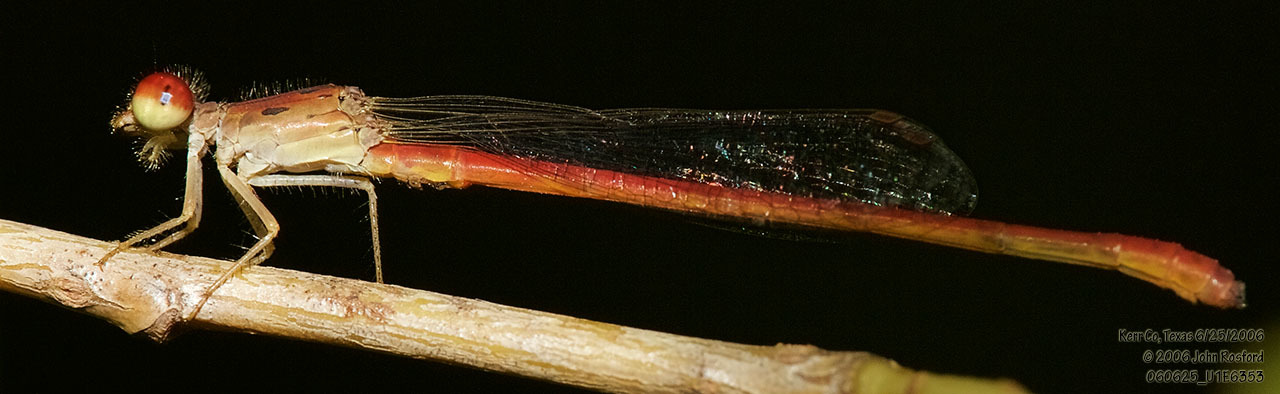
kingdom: Animalia
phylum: Arthropoda
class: Insecta
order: Odonata
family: Coenagrionidae
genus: Telebasis
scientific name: Telebasis salva
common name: Desert firetail
